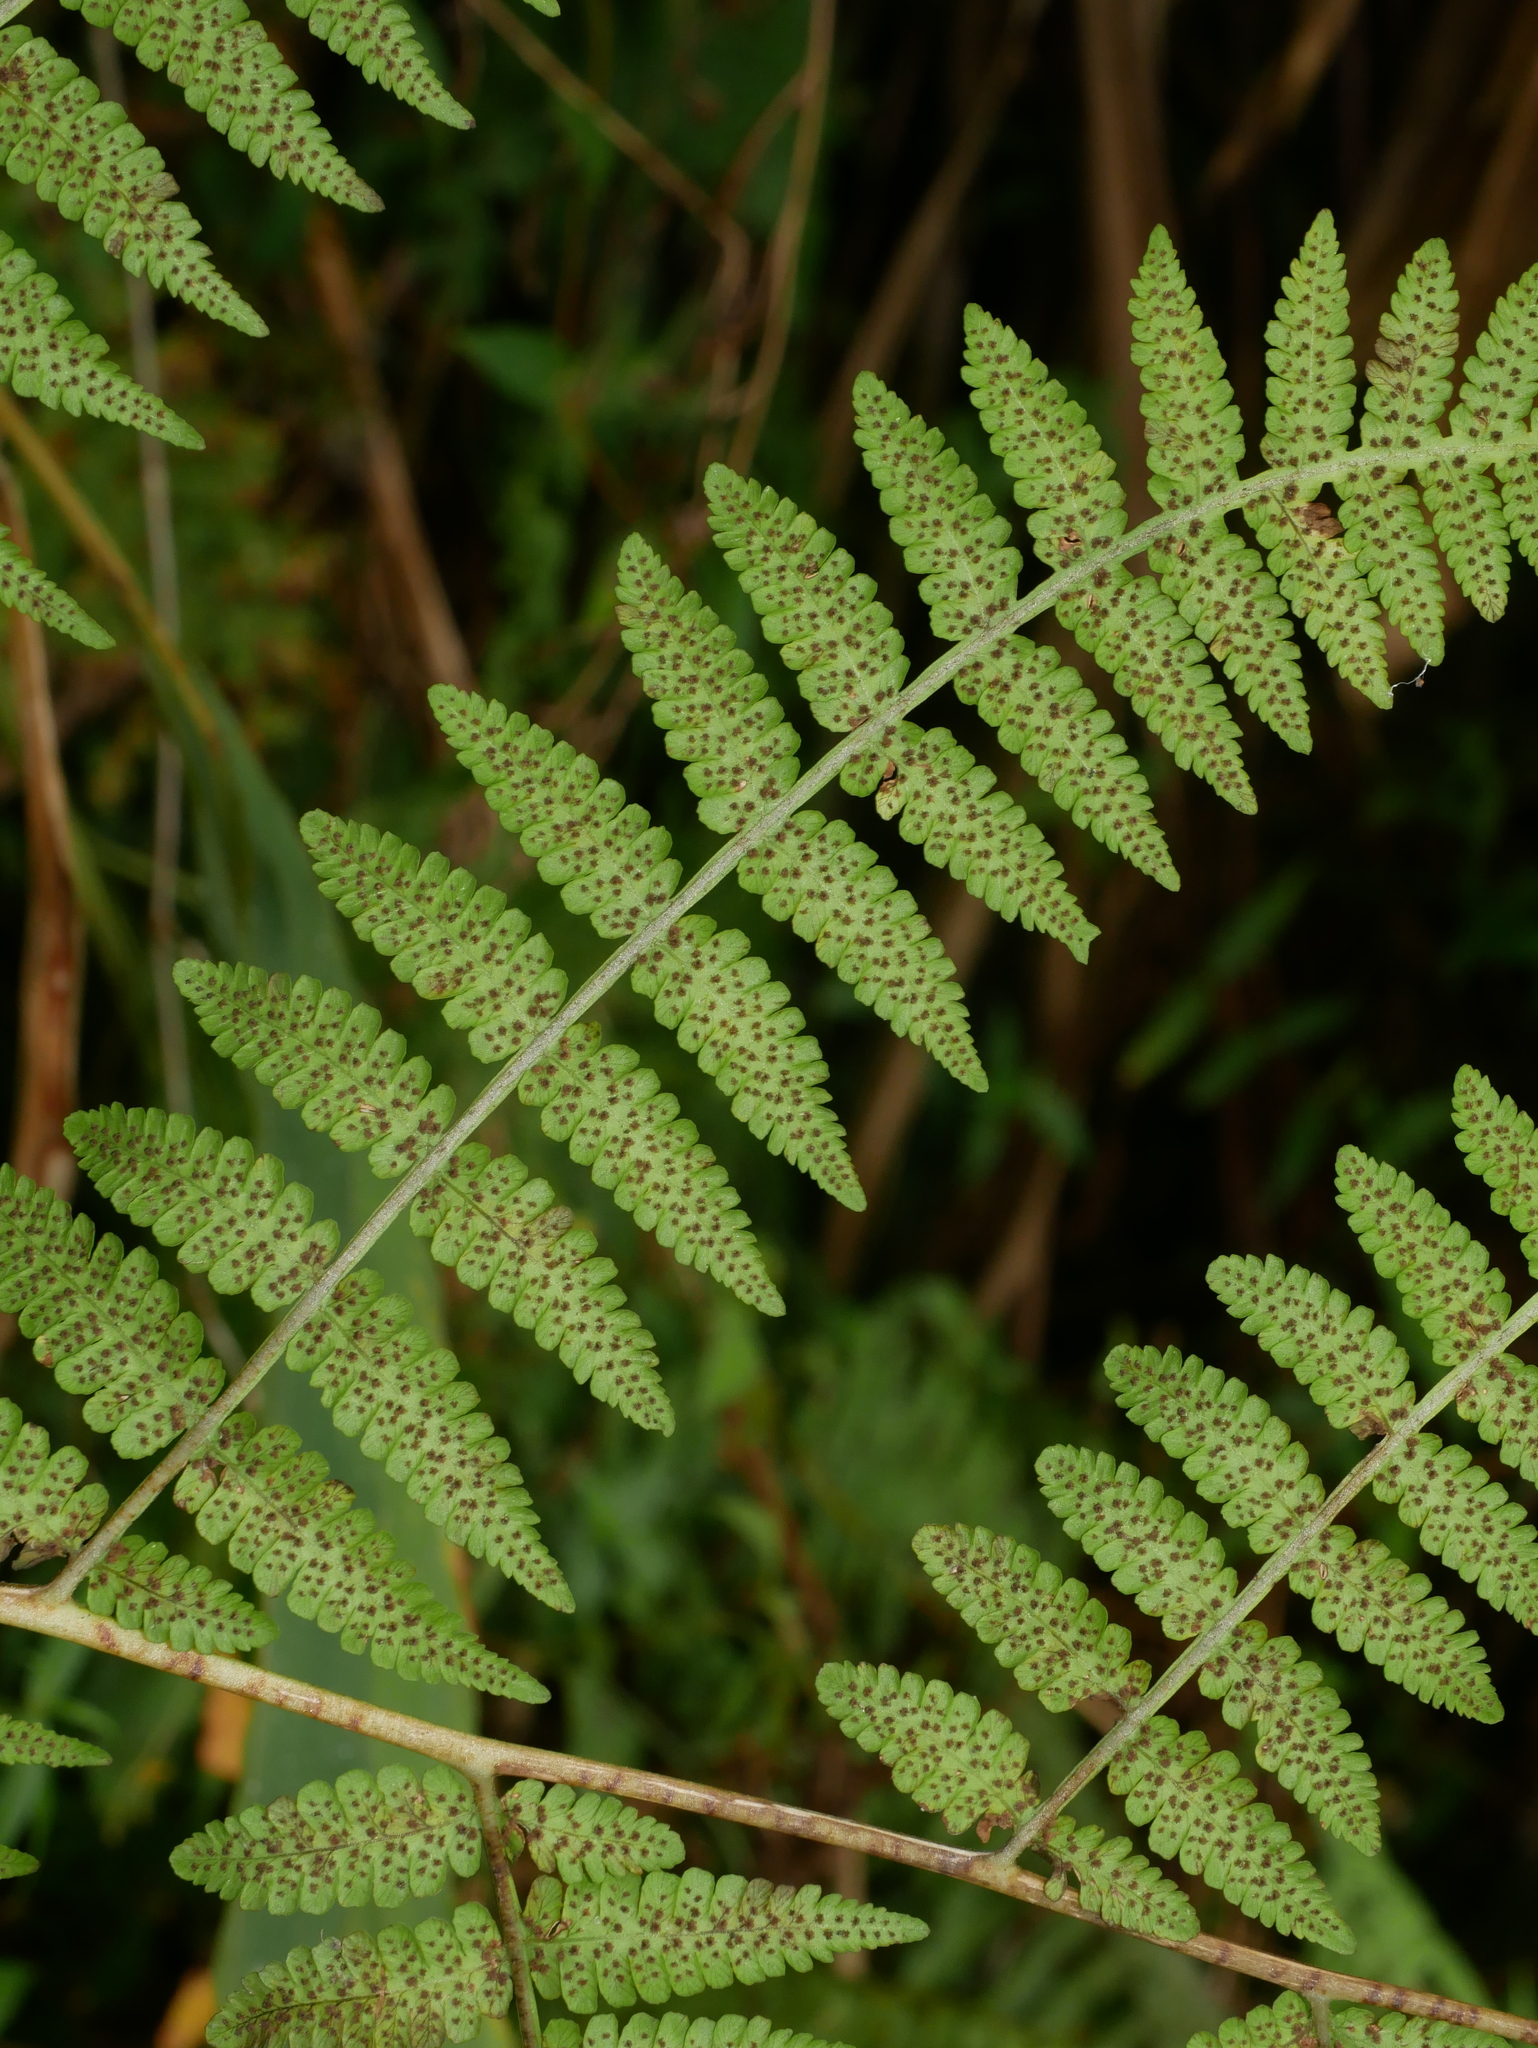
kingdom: Plantae
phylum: Tracheophyta
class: Polypodiopsida
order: Polypodiales
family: Athyriaceae
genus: Deparia
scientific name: Deparia boryana
